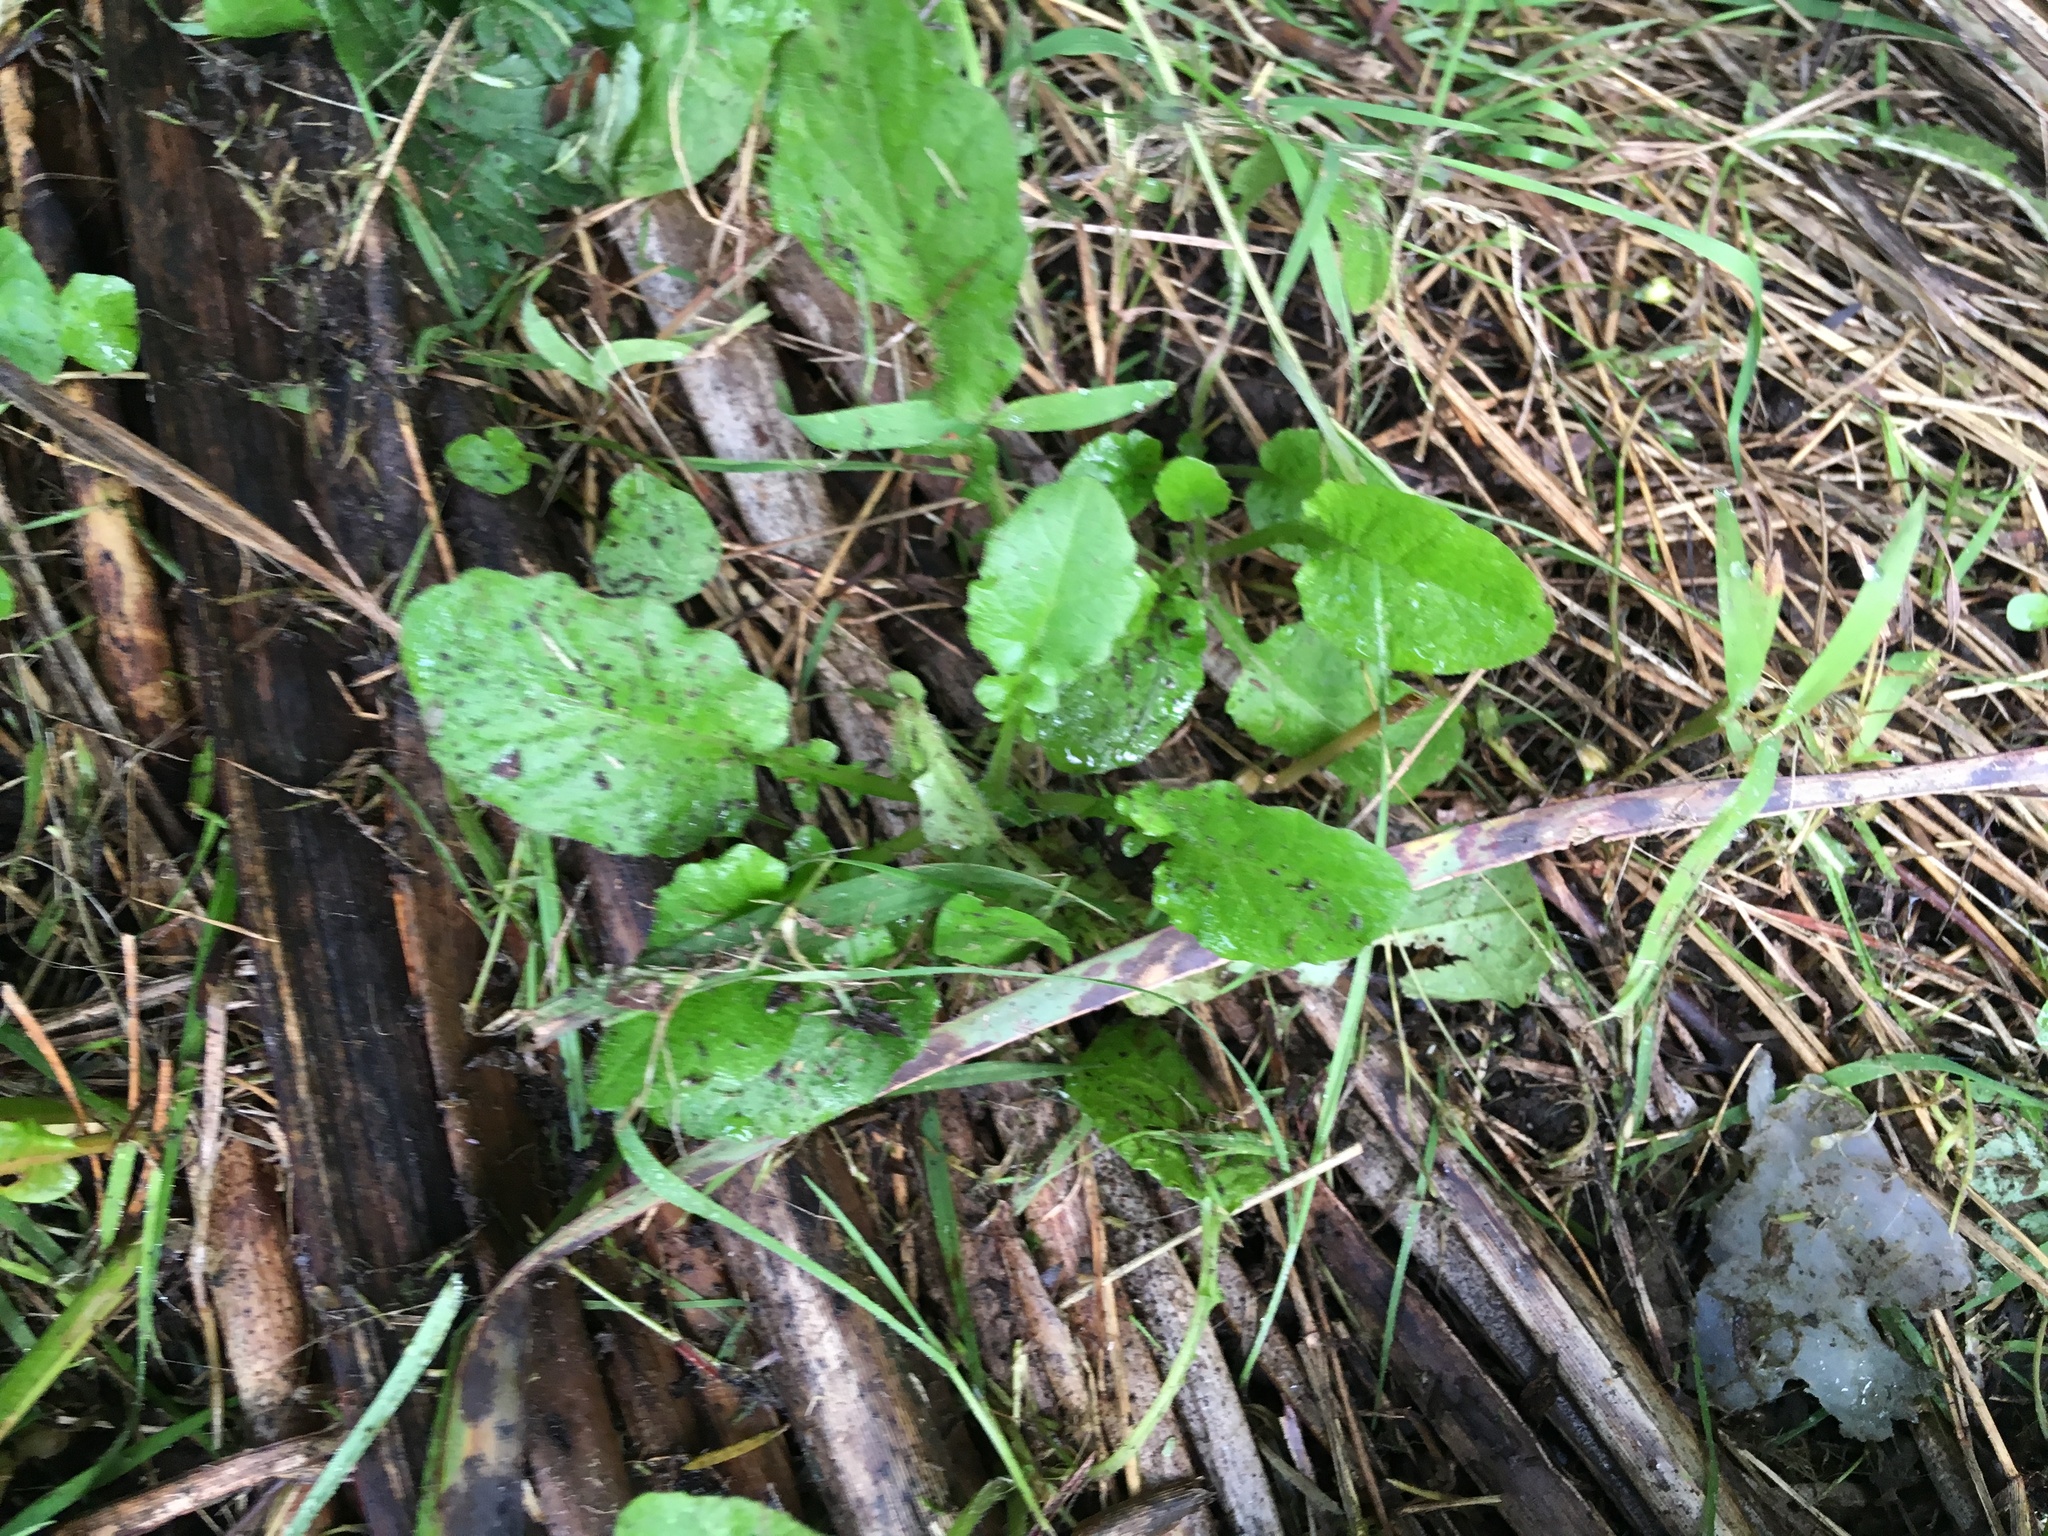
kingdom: Plantae
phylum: Tracheophyta
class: Magnoliopsida
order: Asterales
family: Asteraceae
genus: Lapsana
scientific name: Lapsana communis
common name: Nipplewort
